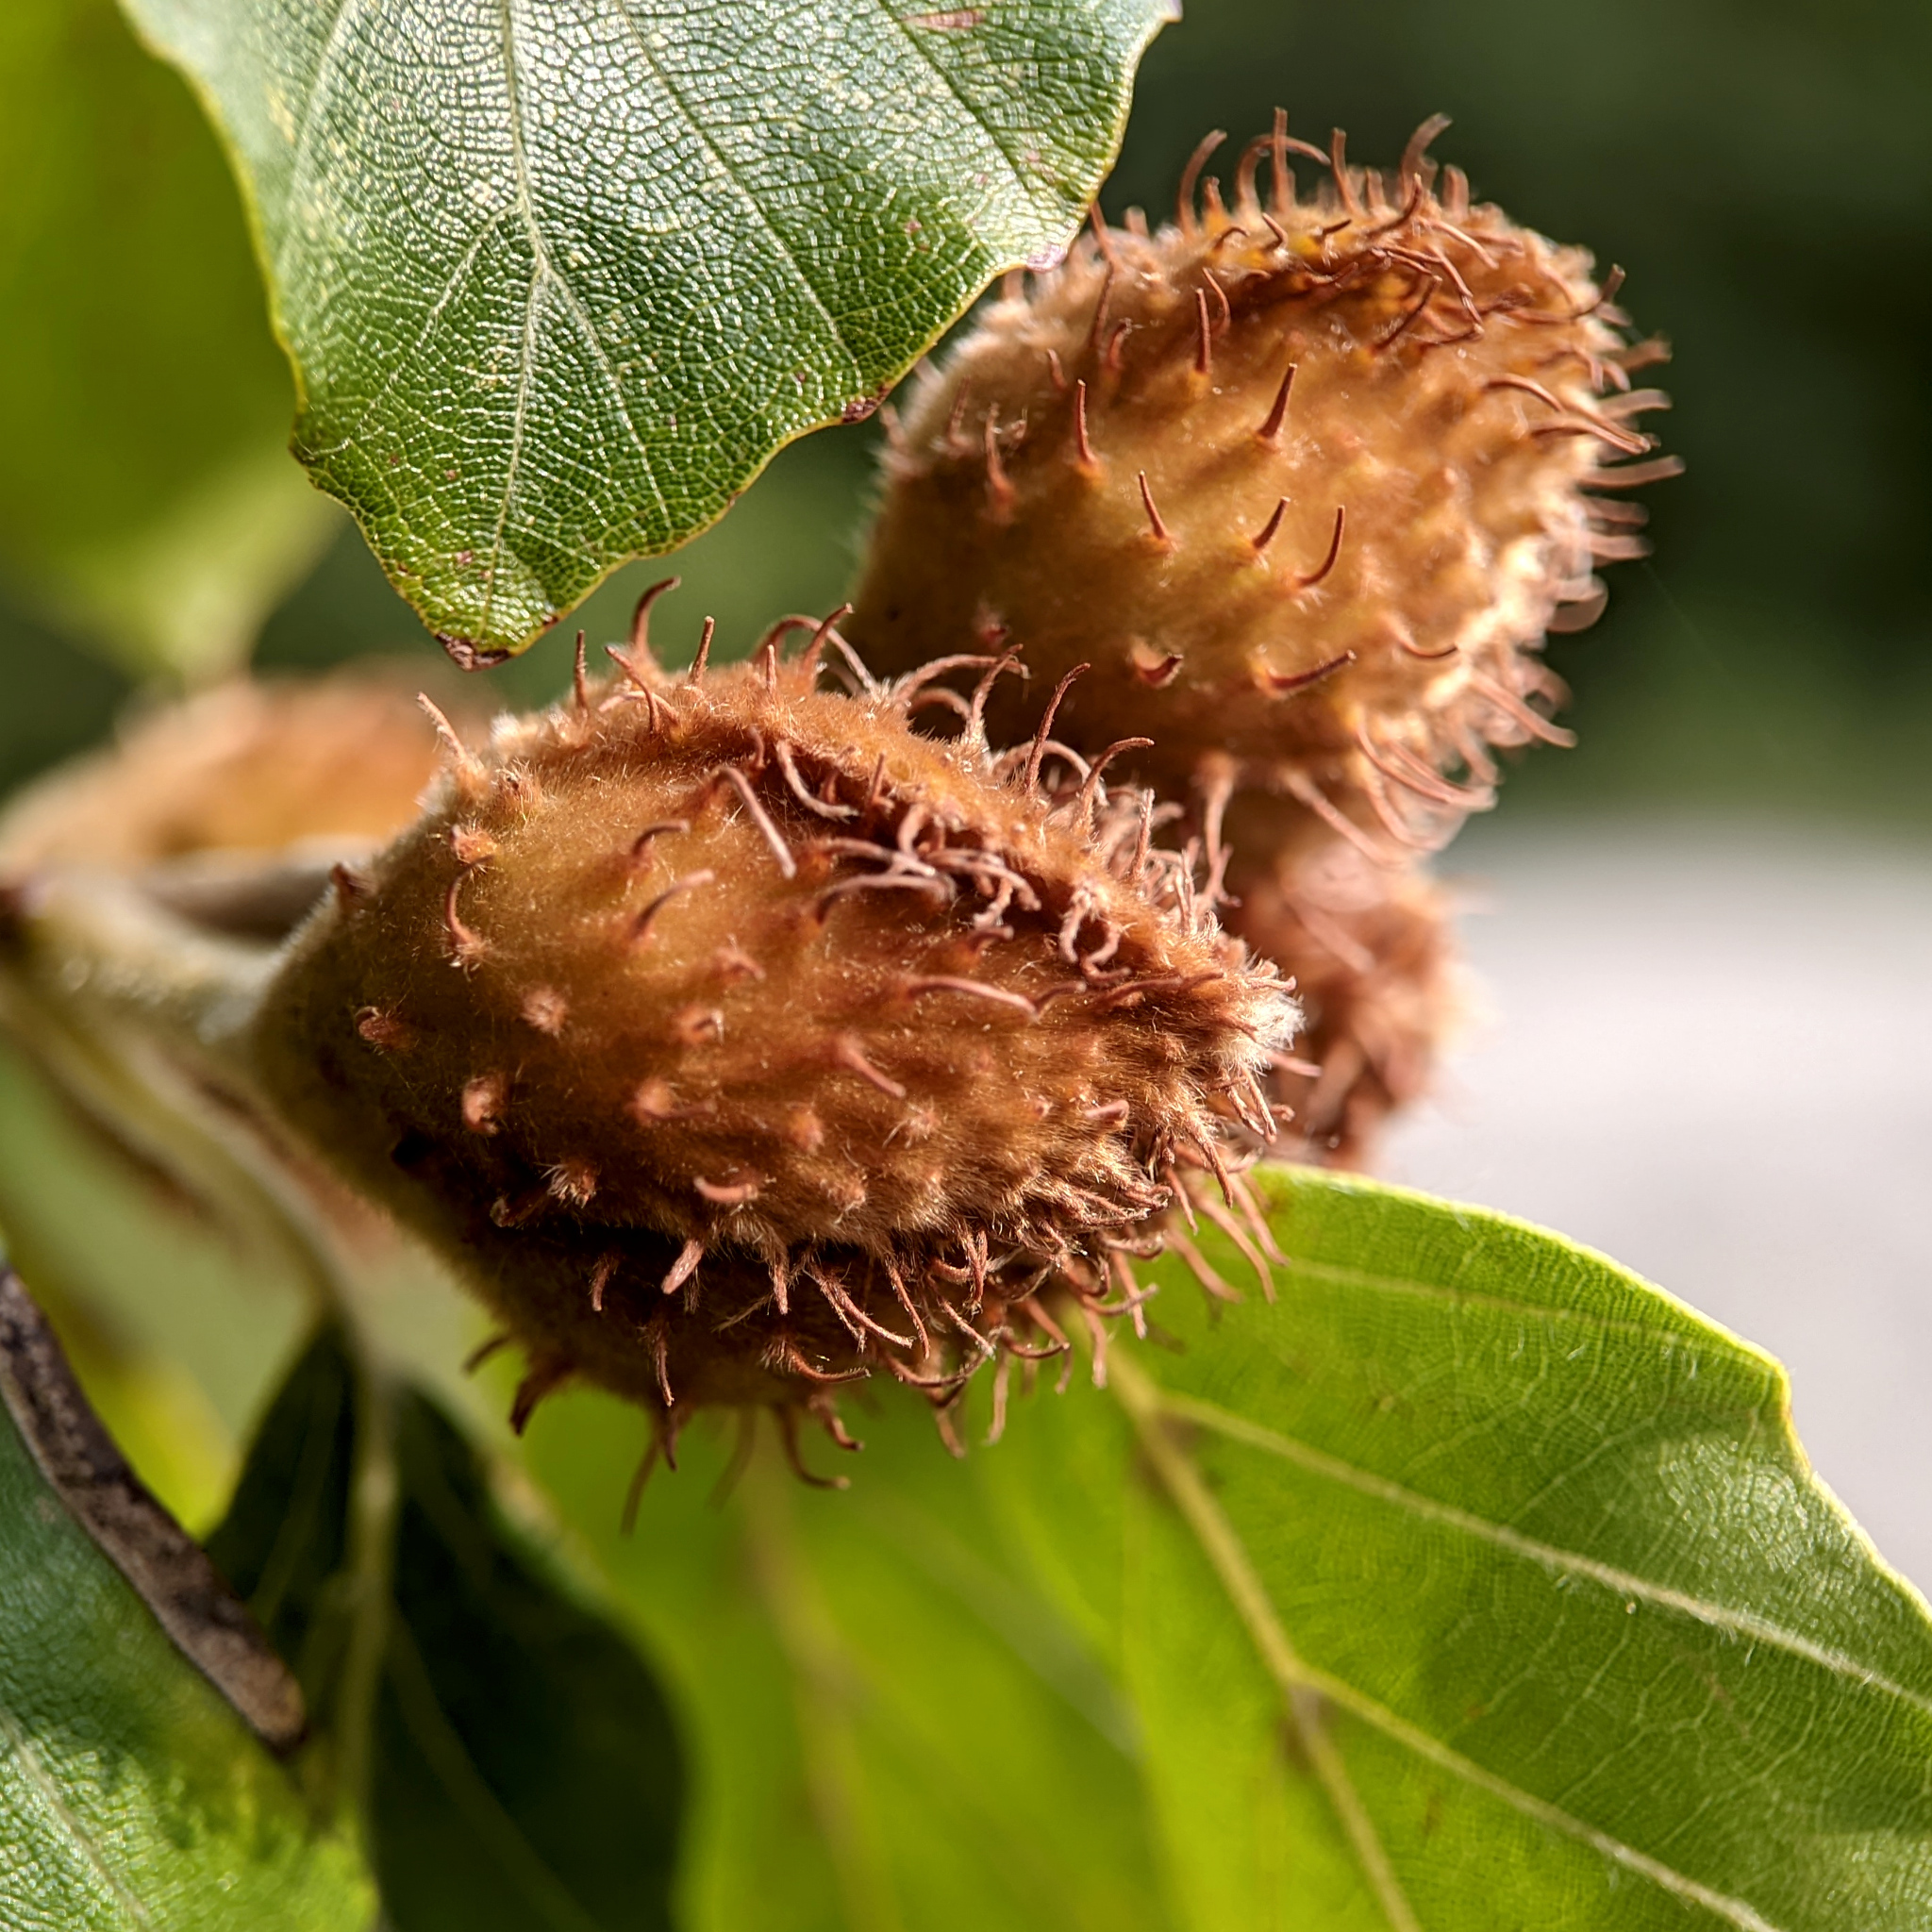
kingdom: Plantae
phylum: Tracheophyta
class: Magnoliopsida
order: Fagales
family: Fagaceae
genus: Fagus
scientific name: Fagus sylvatica
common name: Beech
